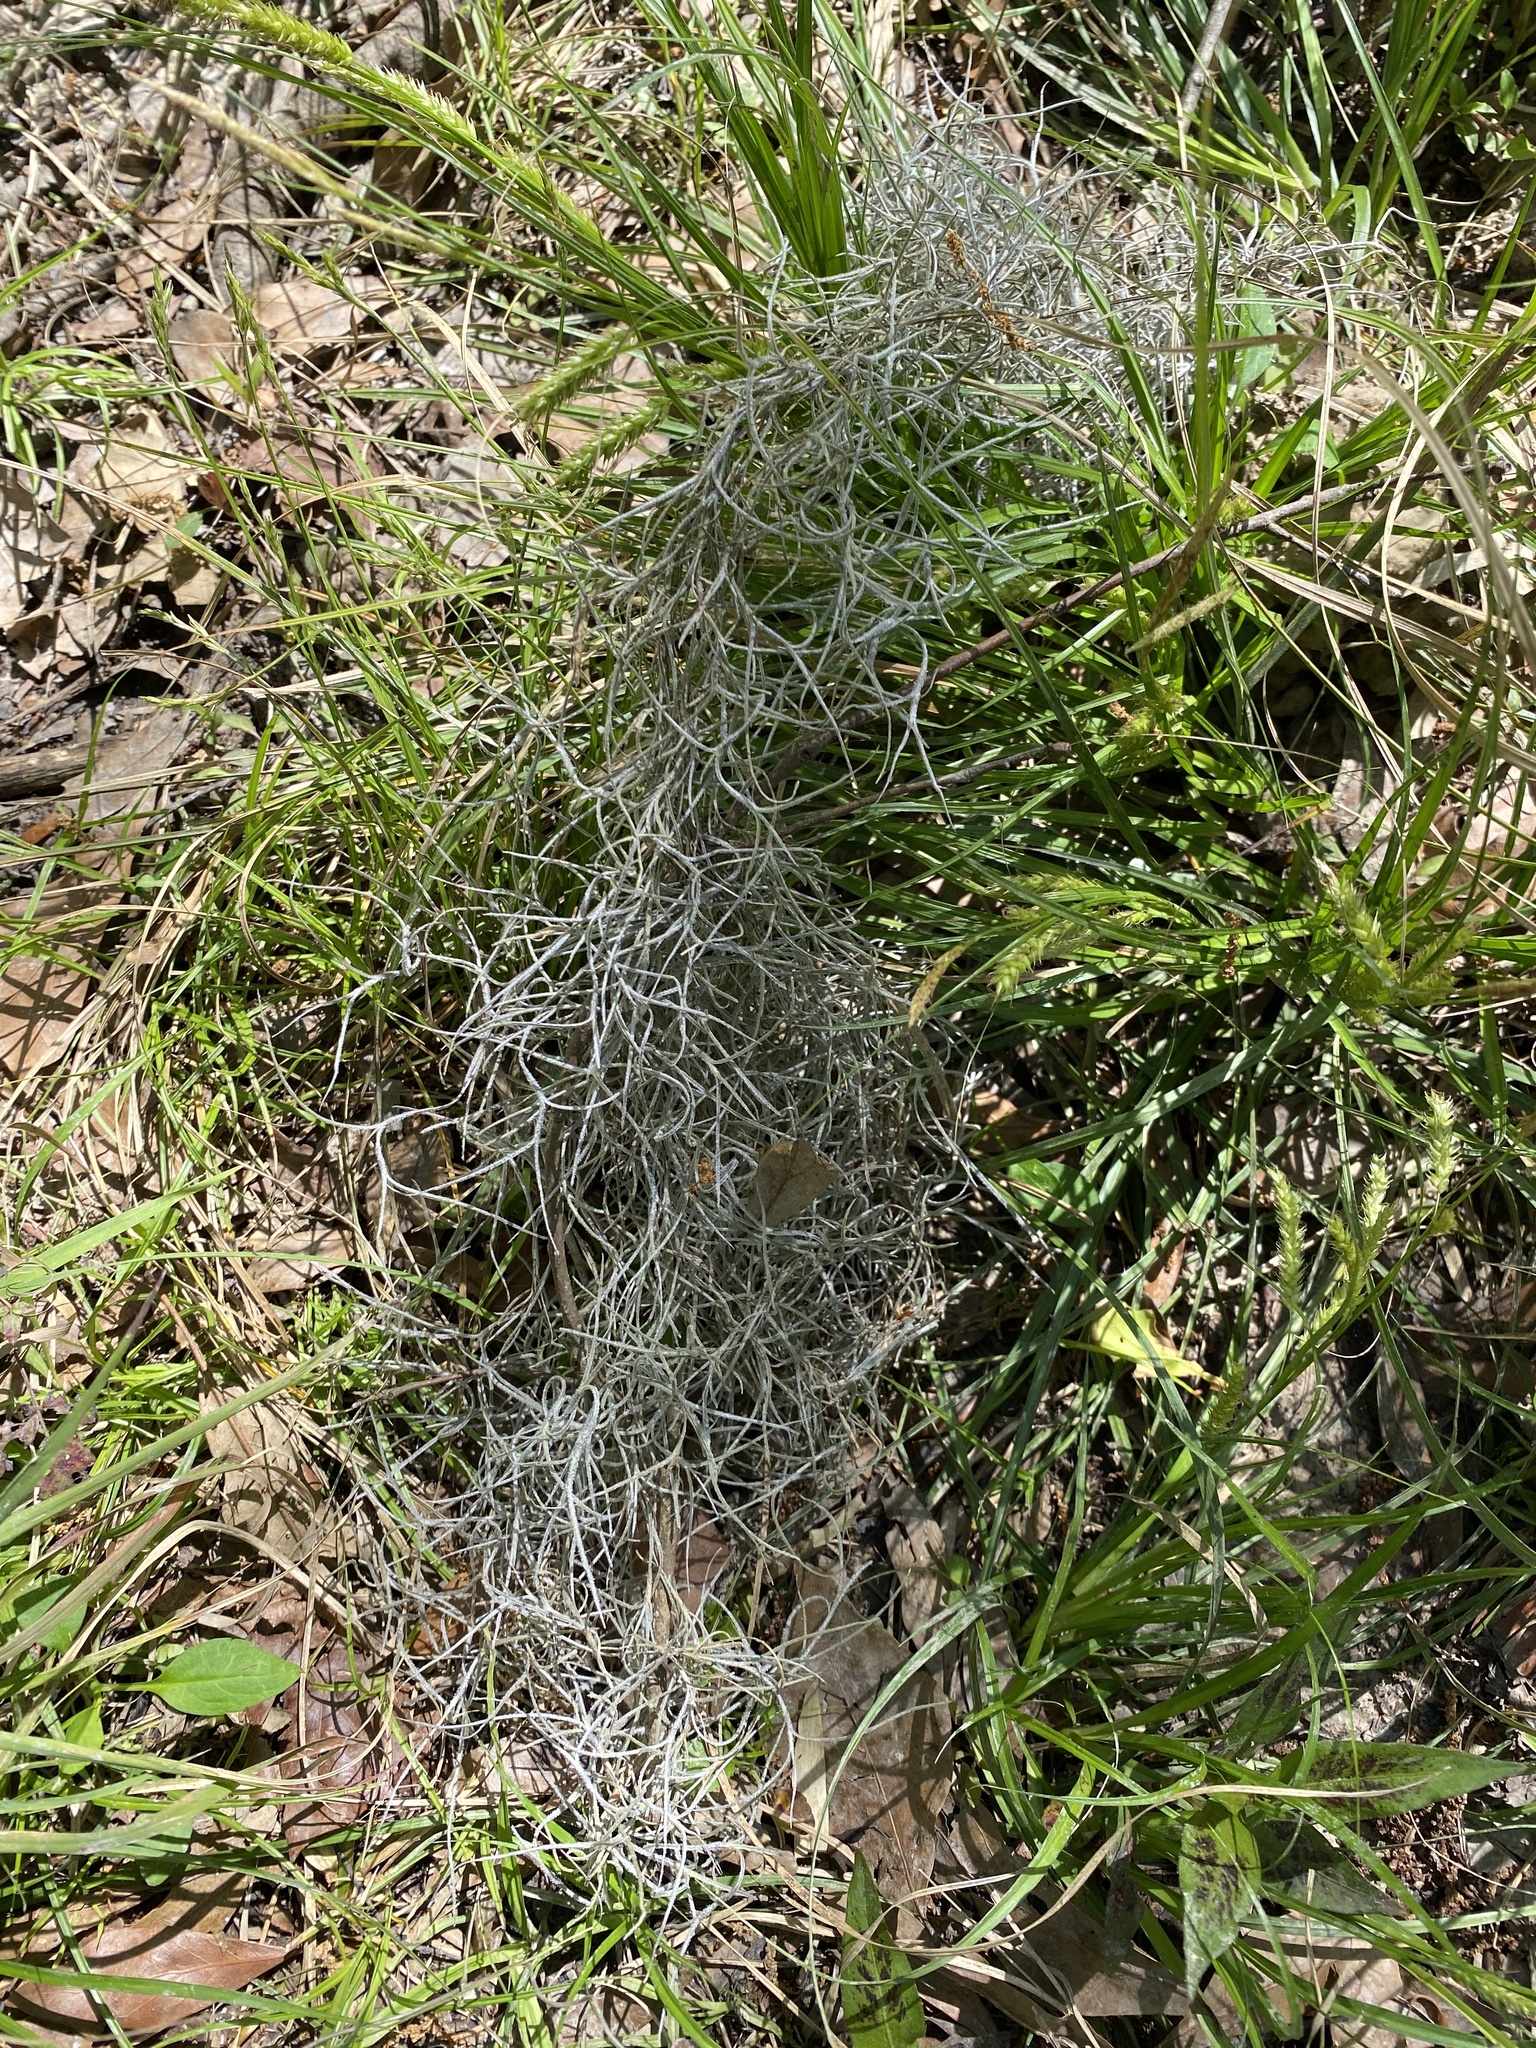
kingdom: Plantae
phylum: Tracheophyta
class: Liliopsida
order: Poales
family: Bromeliaceae
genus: Tillandsia
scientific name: Tillandsia usneoides
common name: Spanish moss
